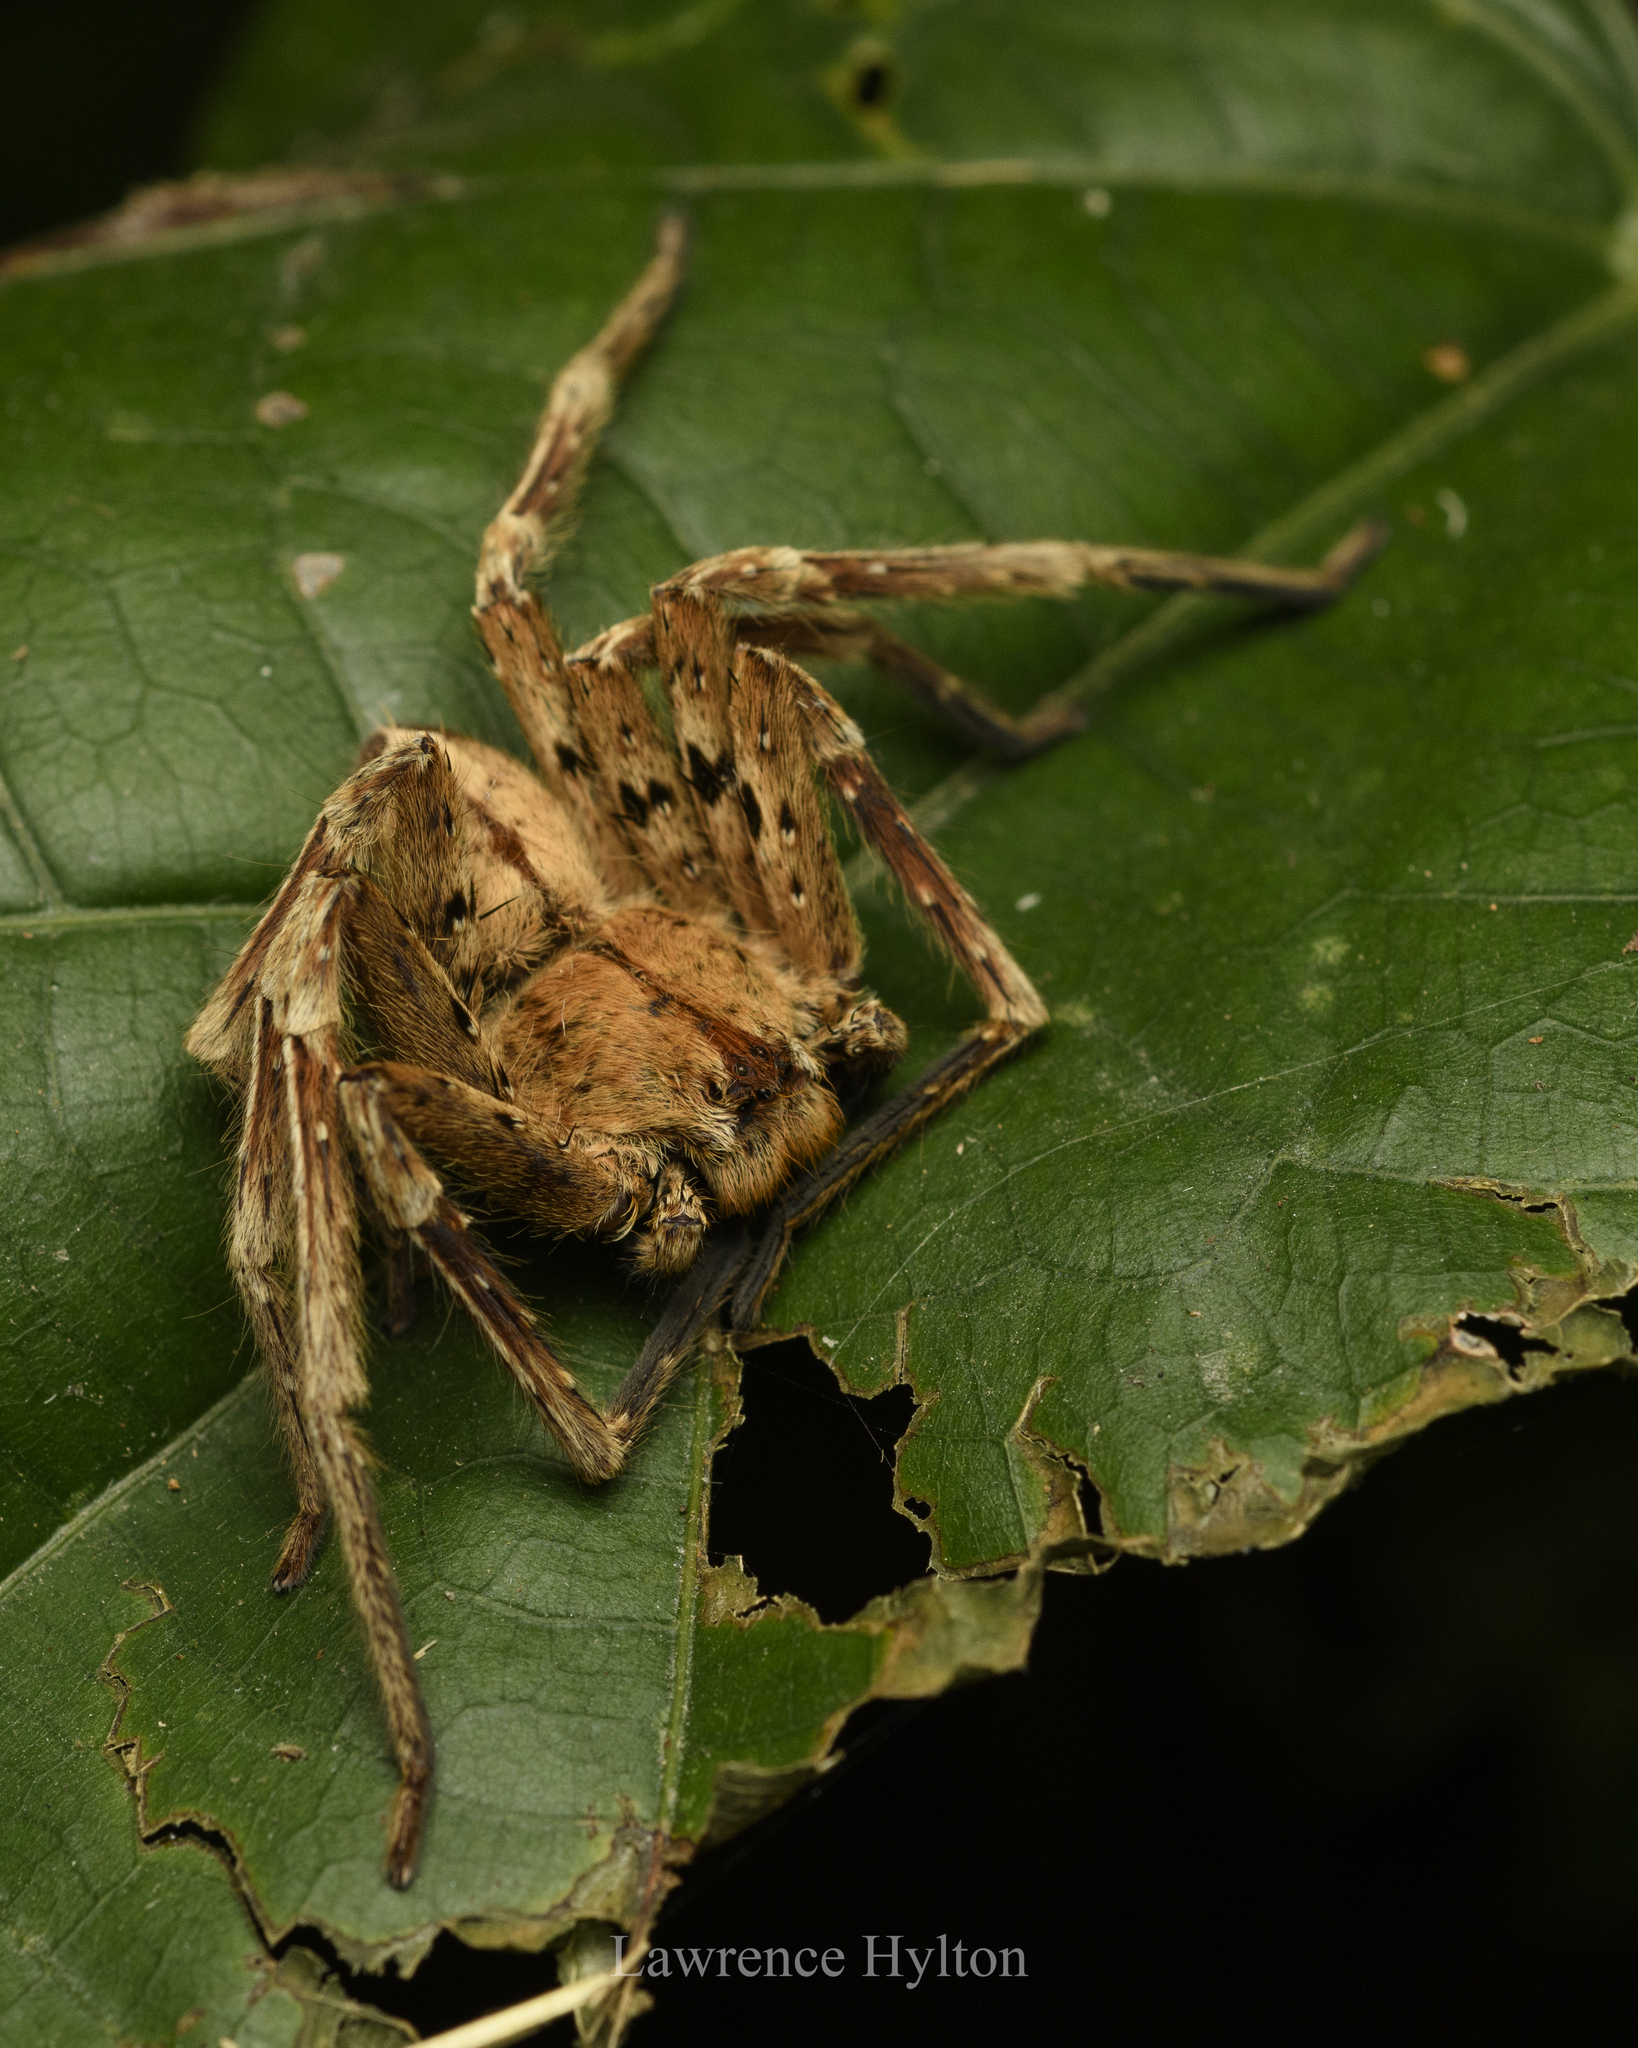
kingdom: Animalia
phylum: Arthropoda
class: Arachnida
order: Araneae
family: Sparassidae
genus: Heteropoda
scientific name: Heteropoda pingtungensis
